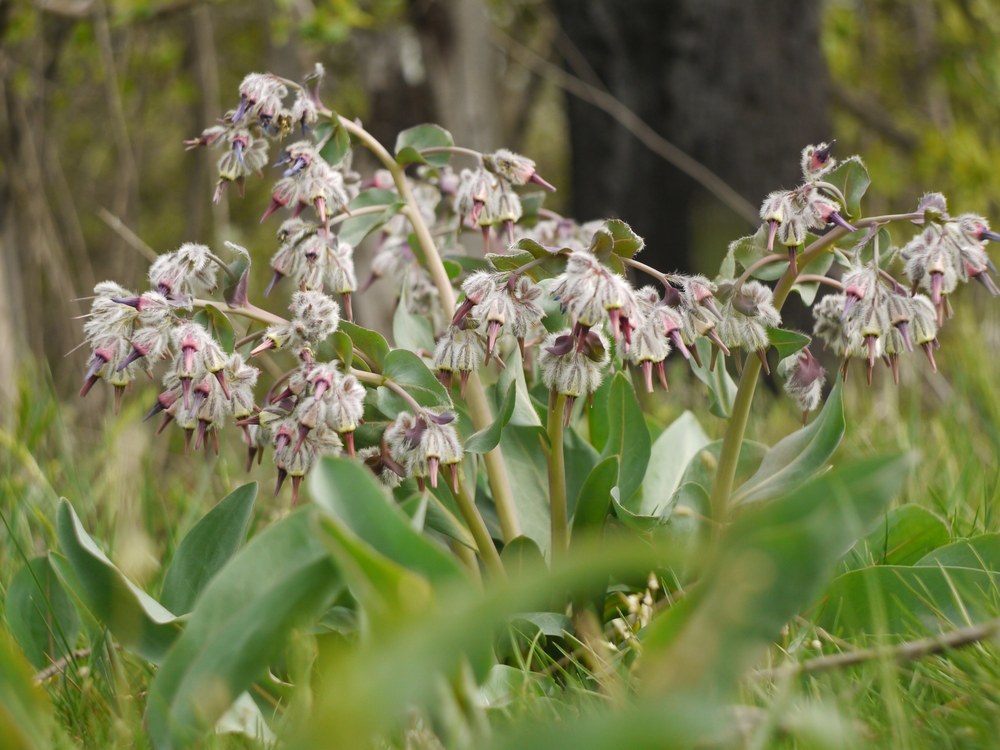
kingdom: Plantae
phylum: Tracheophyta
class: Magnoliopsida
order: Boraginales
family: Boraginaceae
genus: Rindera
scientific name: Rindera tetraspis
